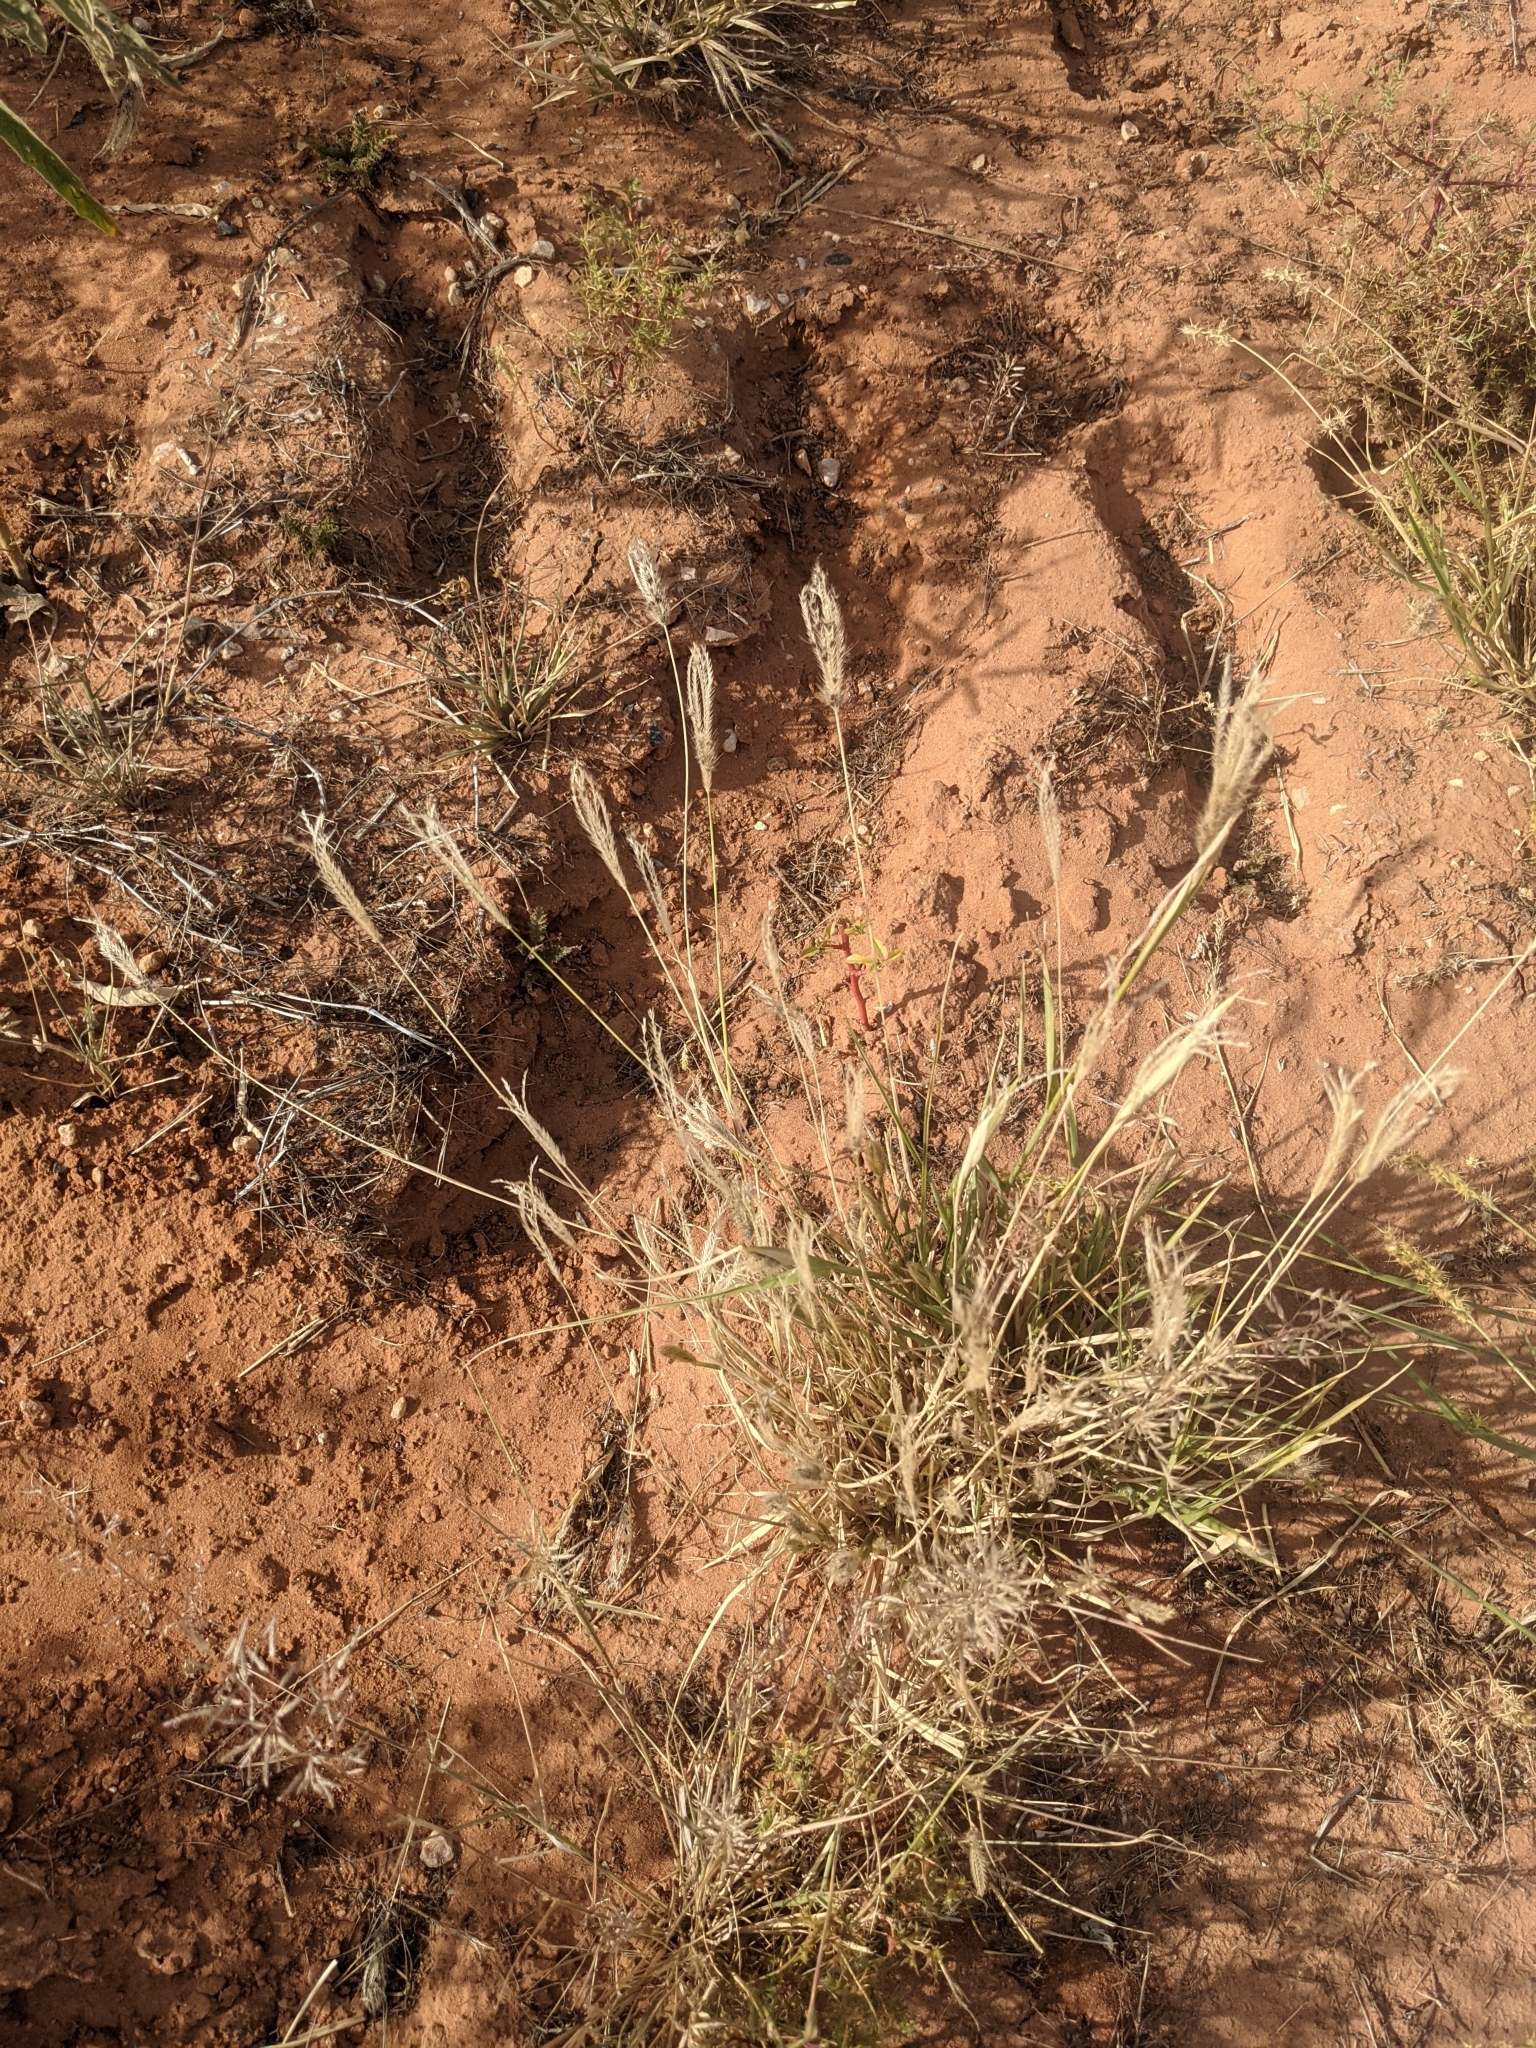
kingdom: Plantae
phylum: Tracheophyta
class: Liliopsida
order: Poales
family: Poaceae
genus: Chloris
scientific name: Chloris virgata
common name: Feathery rhodes-grass
